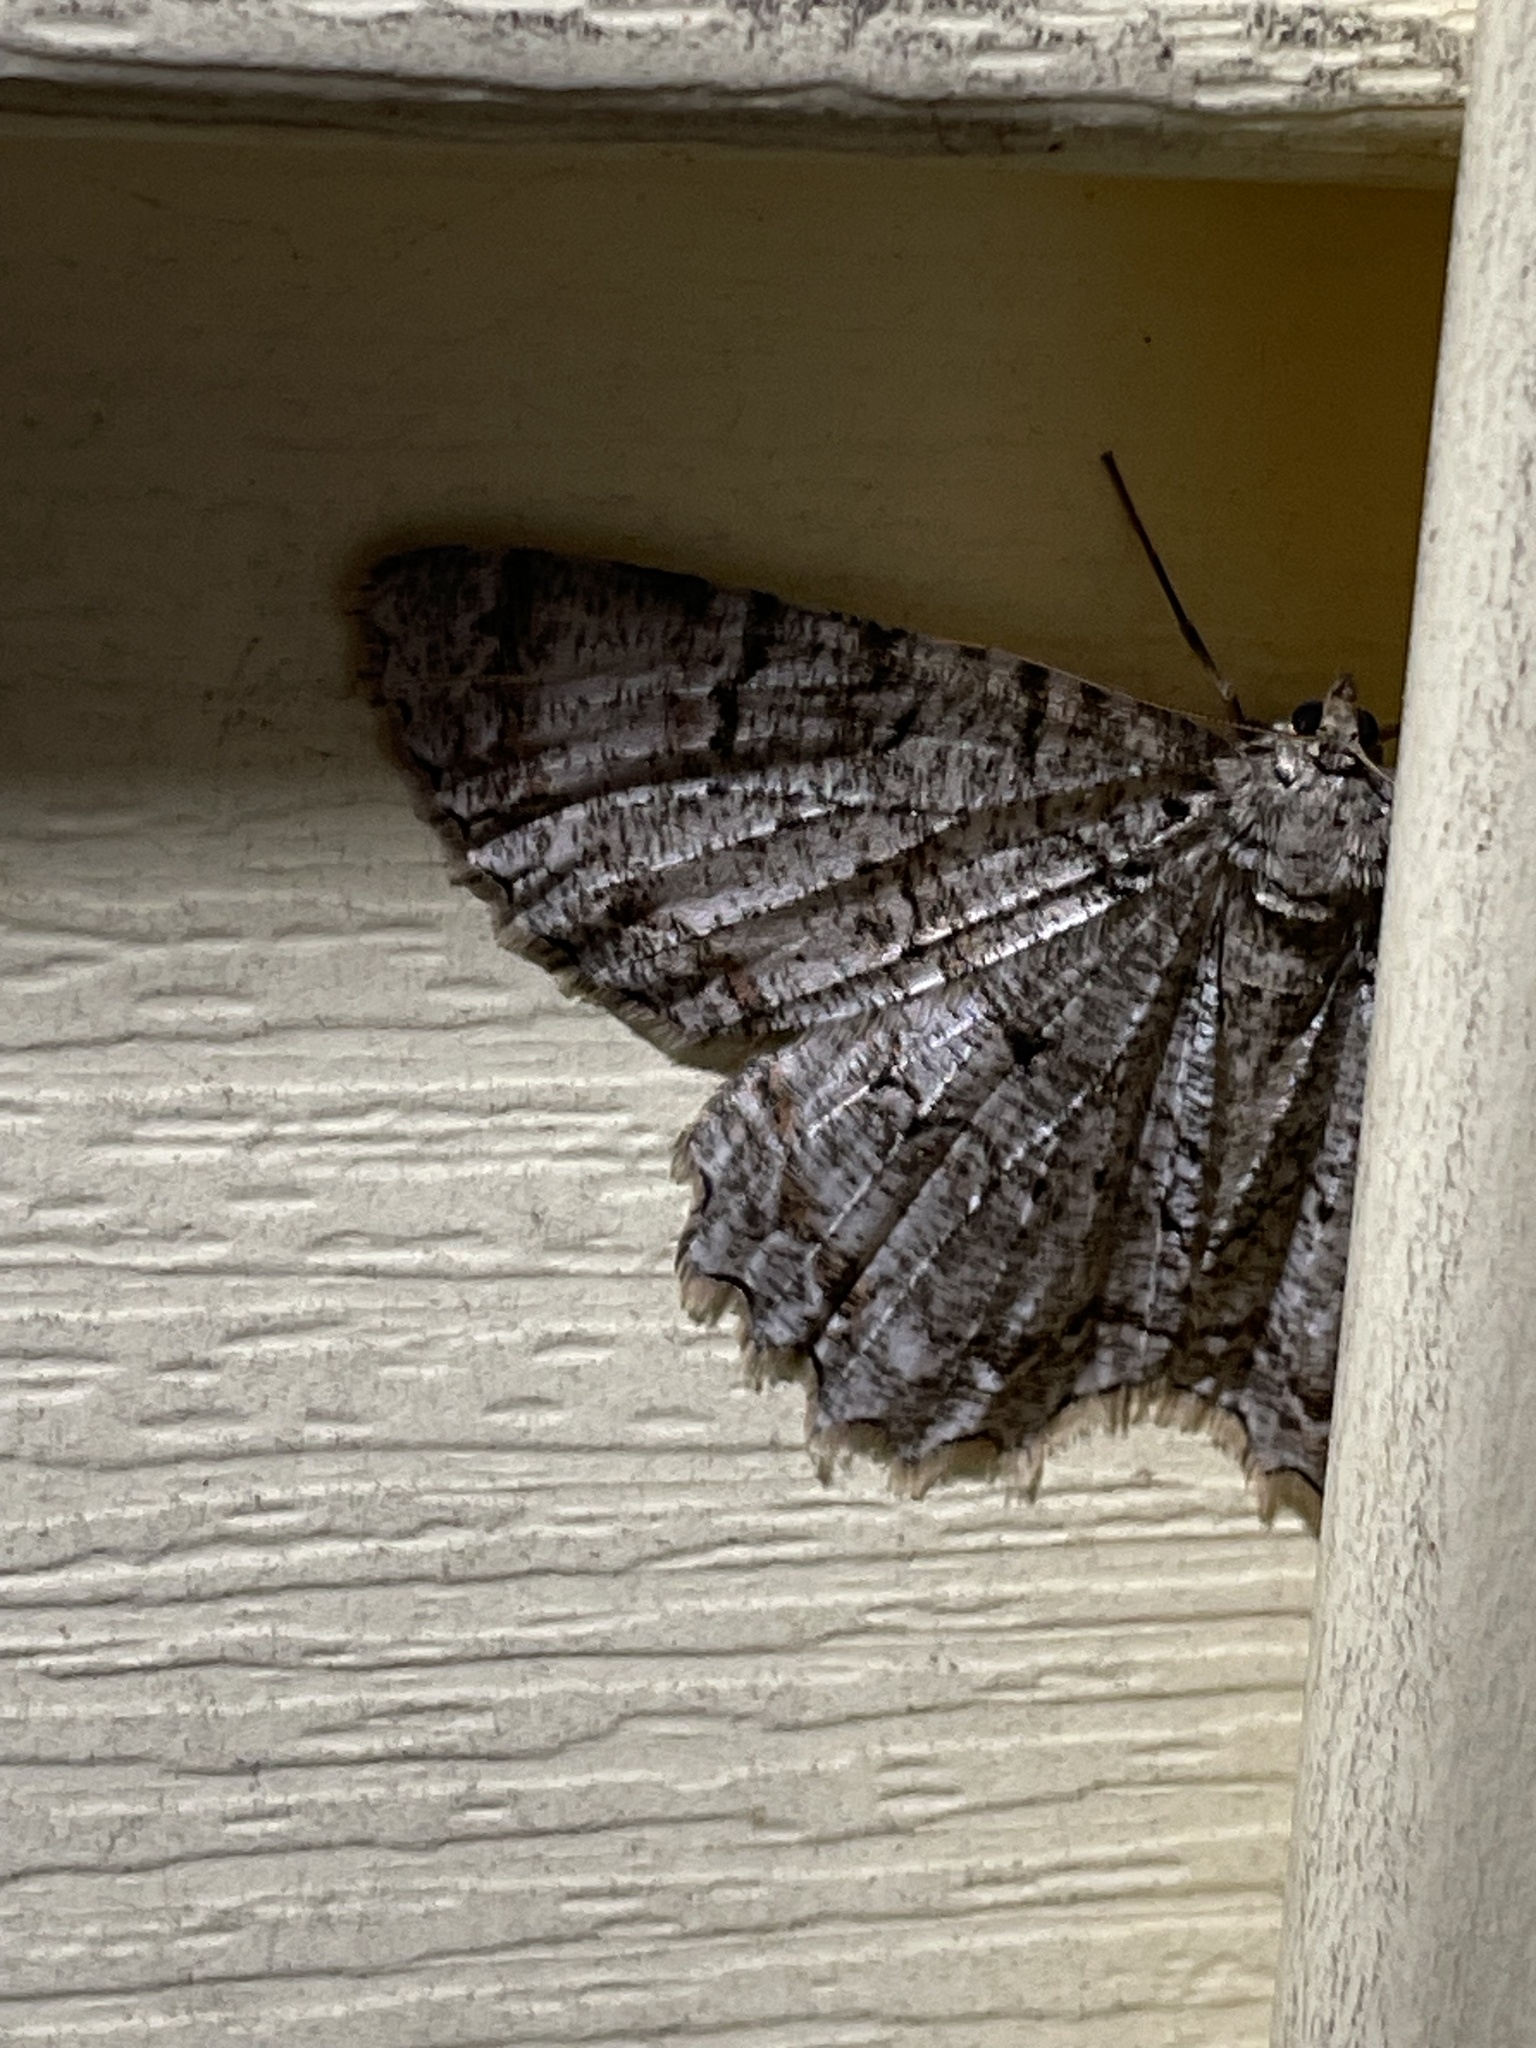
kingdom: Animalia
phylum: Arthropoda
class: Insecta
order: Lepidoptera
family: Geometridae
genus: Epimecis
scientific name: Epimecis hortaria
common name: Tulip-tree beauty
